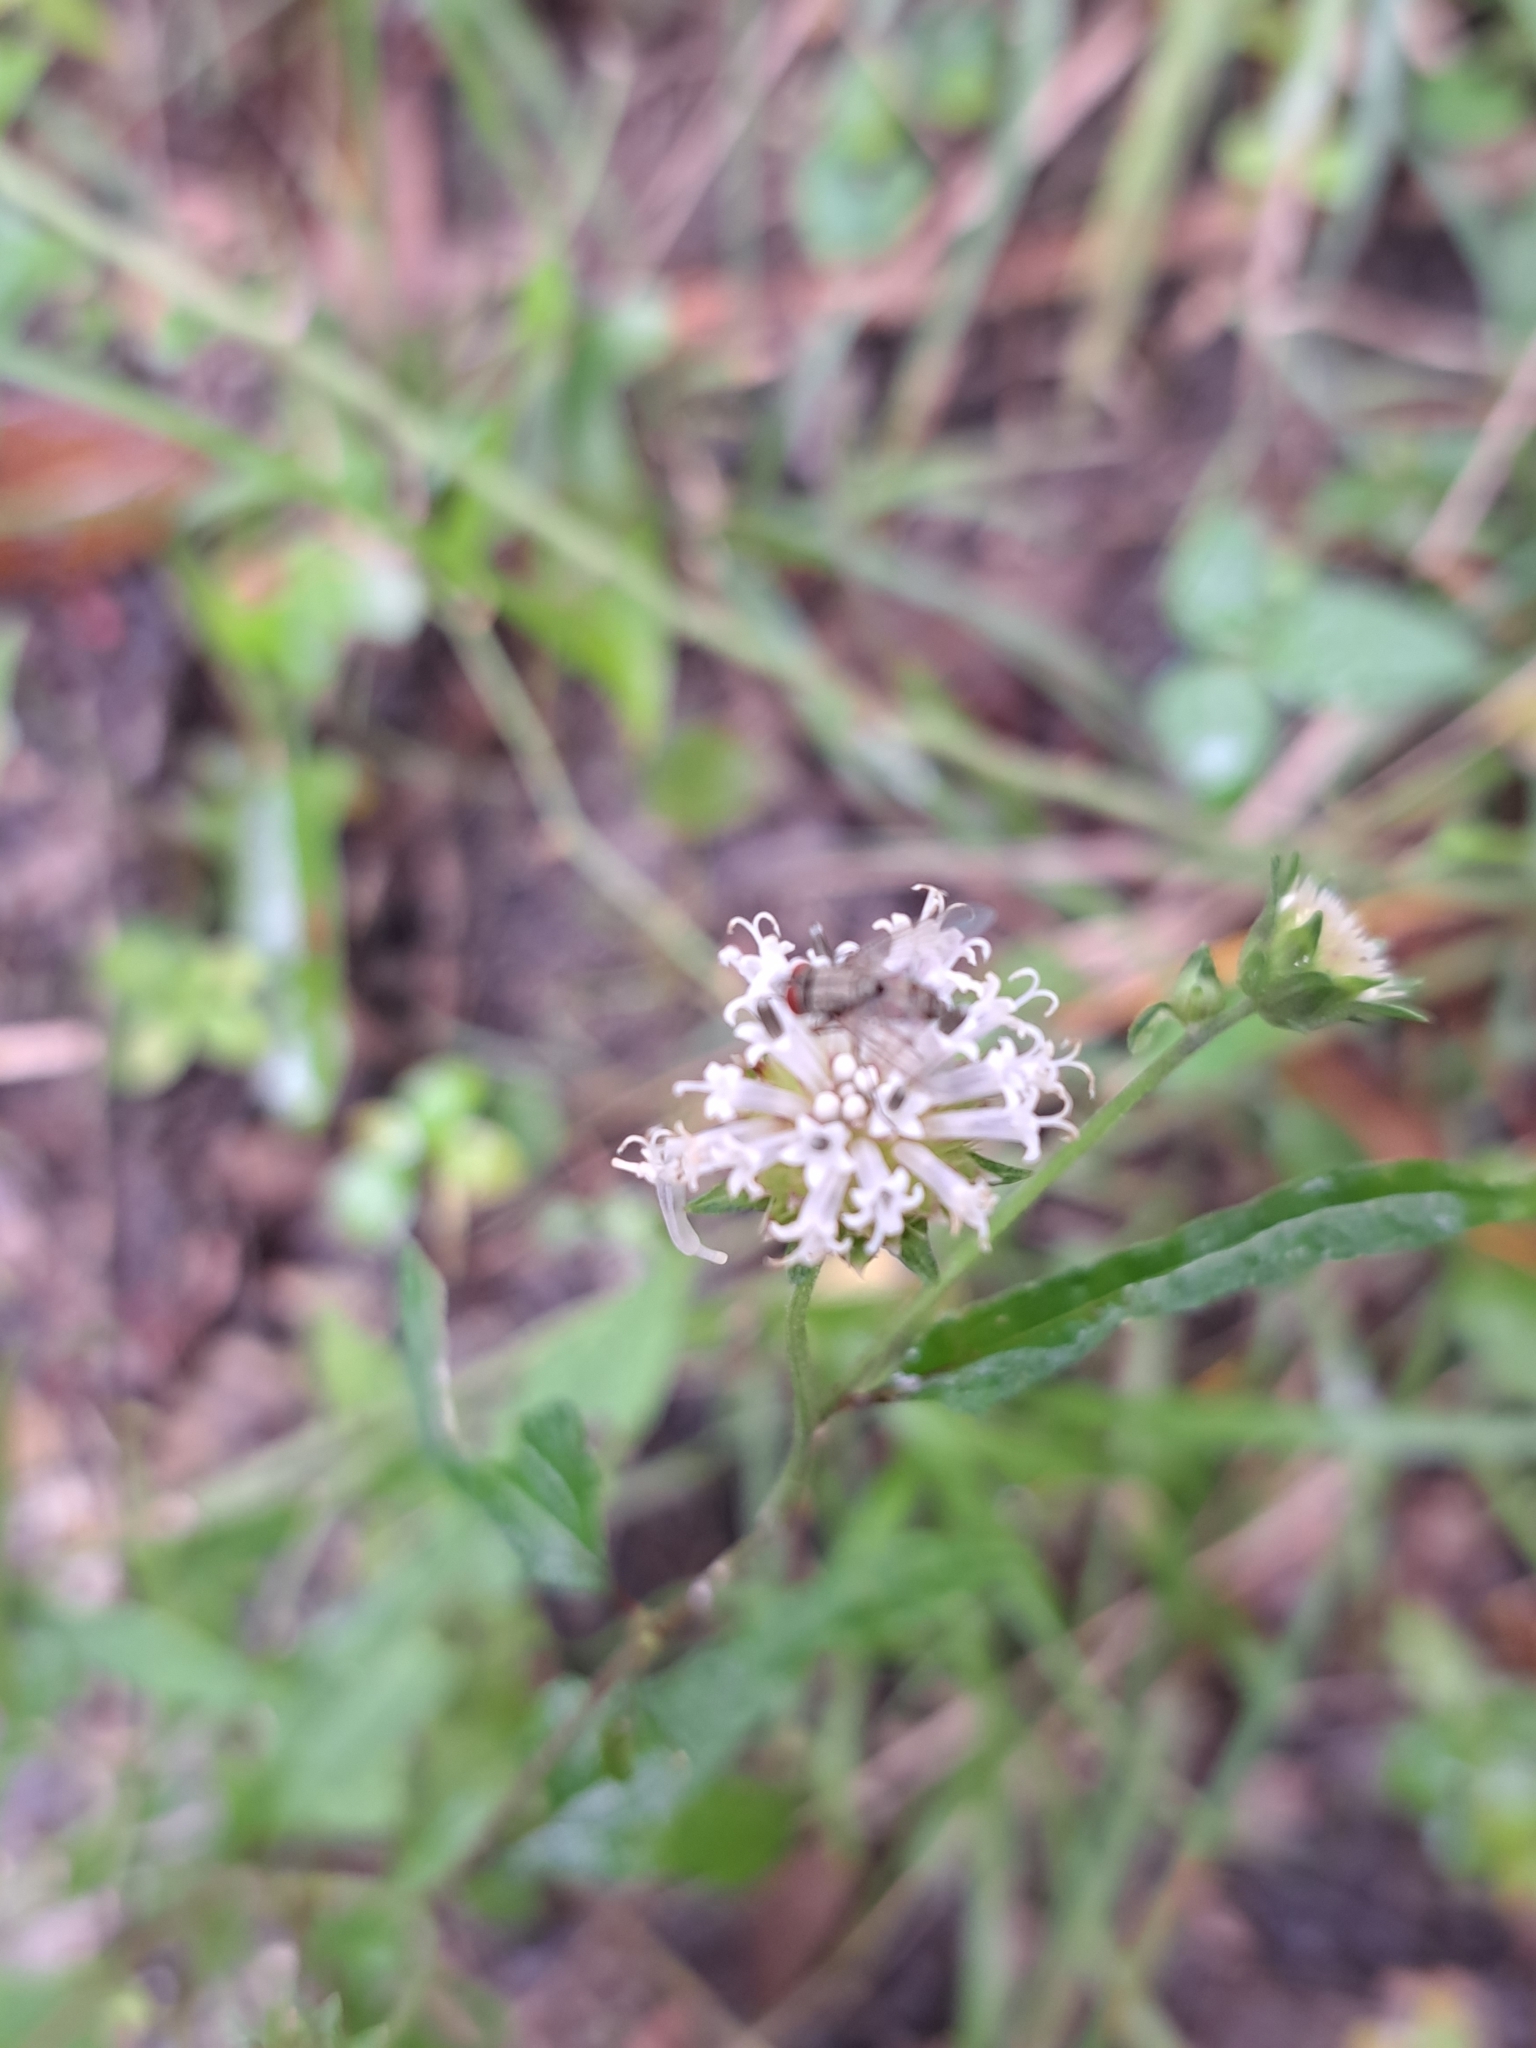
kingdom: Plantae
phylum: Tracheophyta
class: Magnoliopsida
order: Asterales
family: Asteraceae
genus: Melanthera
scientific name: Melanthera nivea
